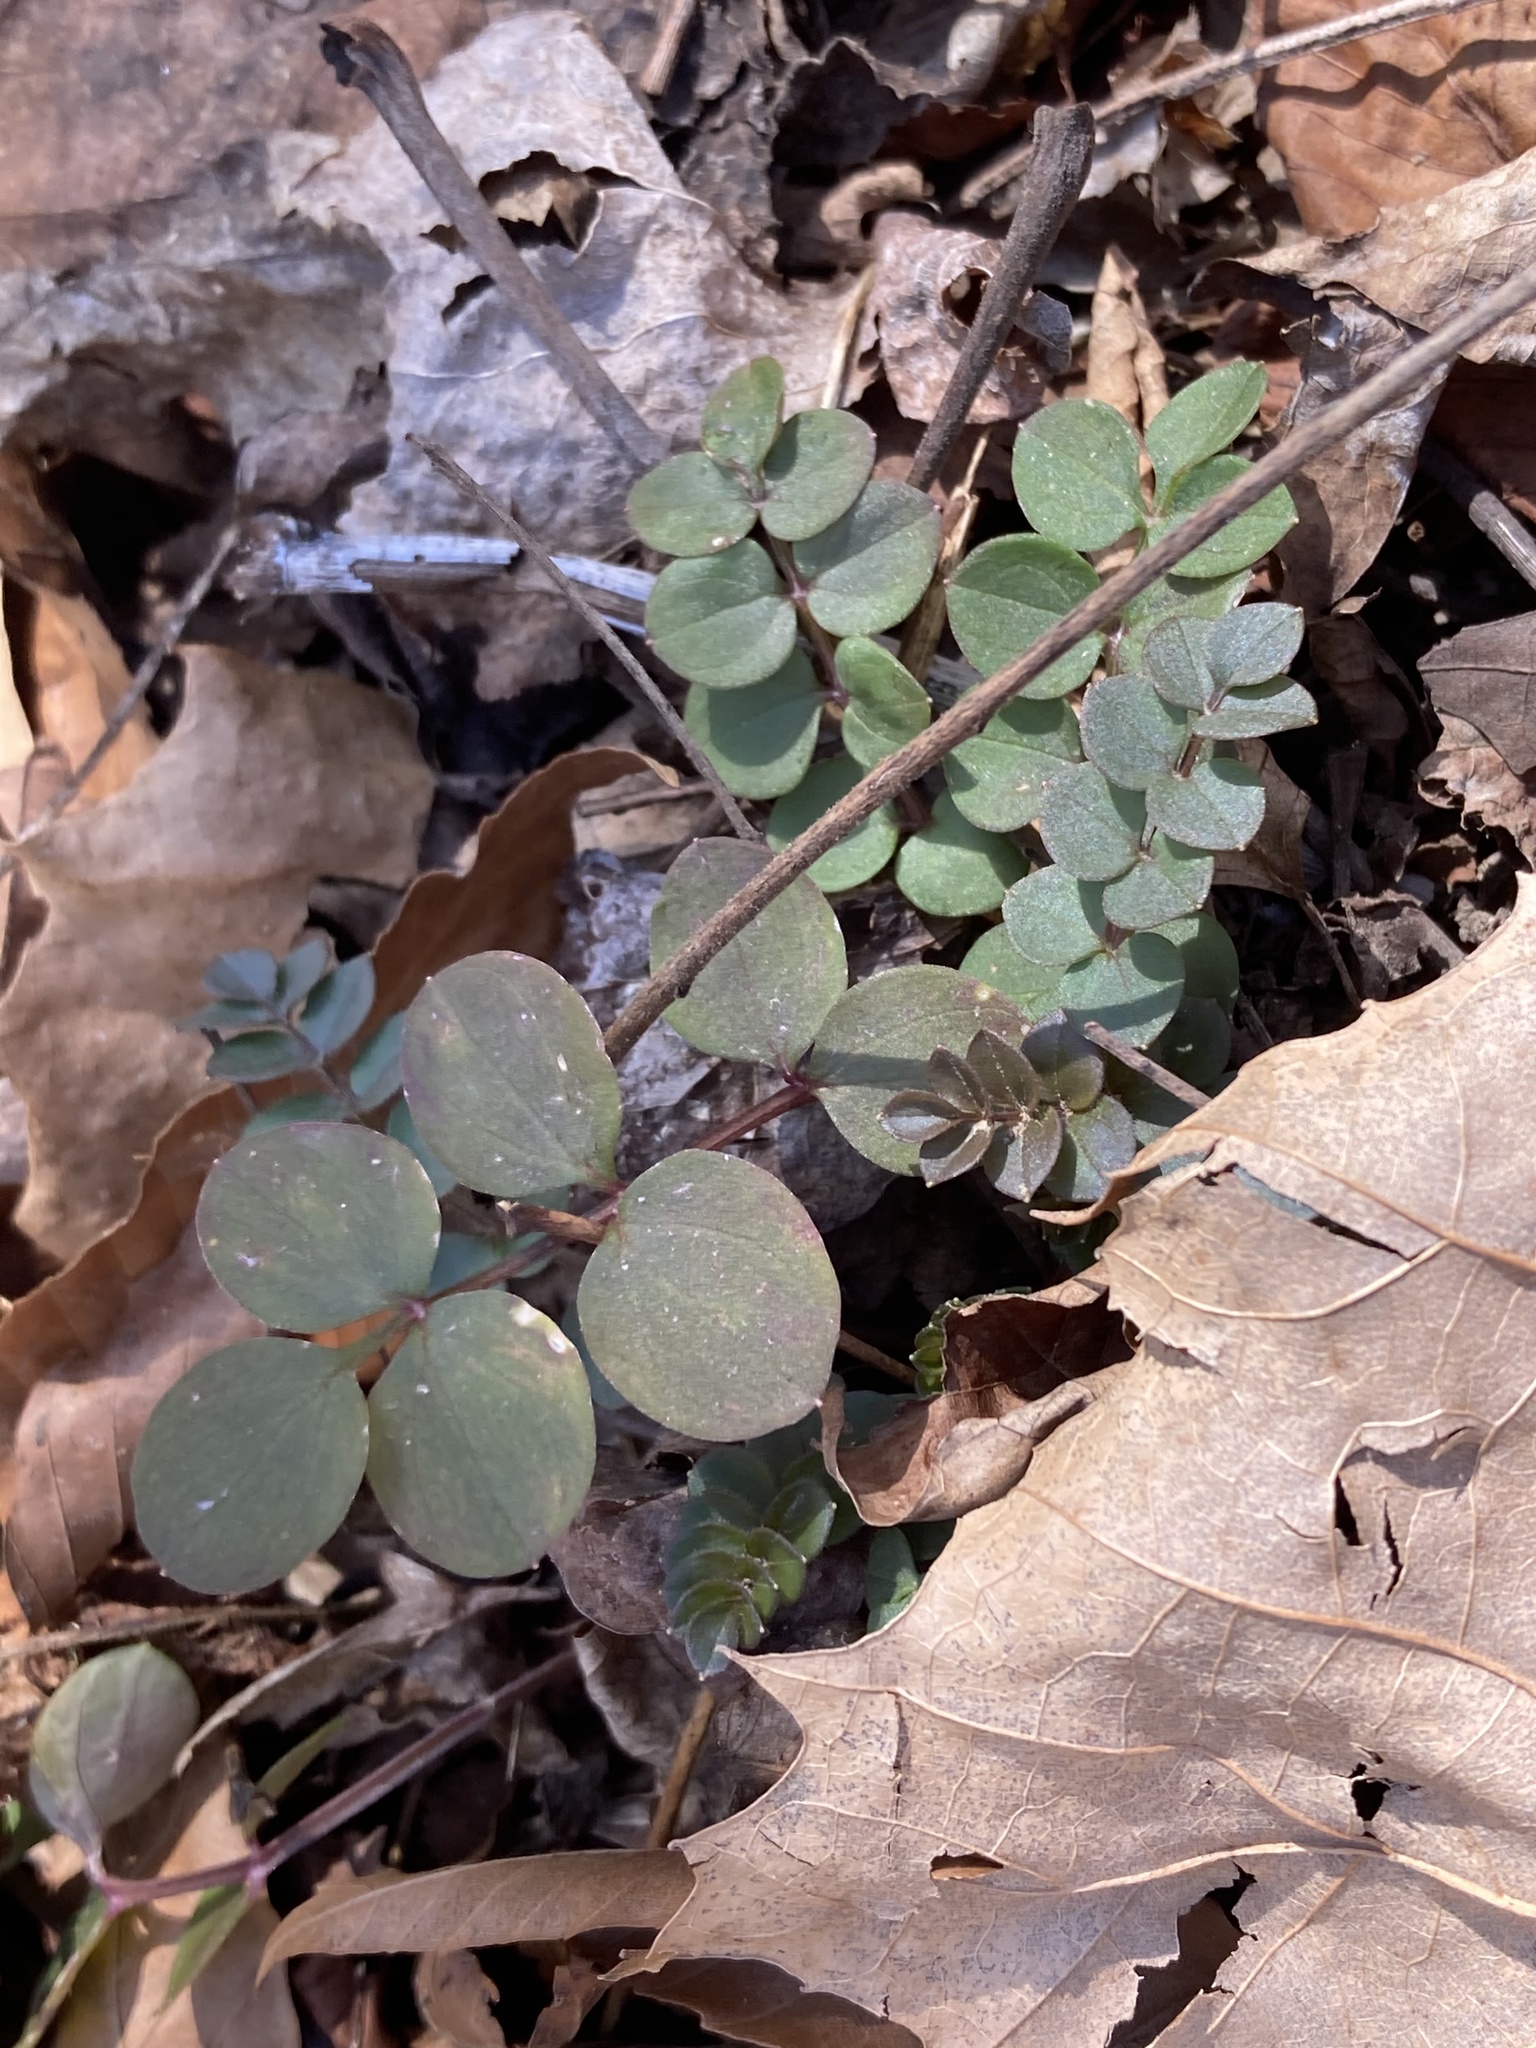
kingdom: Plantae
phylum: Tracheophyta
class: Magnoliopsida
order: Ericales
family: Polemoniaceae
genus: Polemonium
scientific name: Polemonium reptans
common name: Creeping jacob's-ladder
